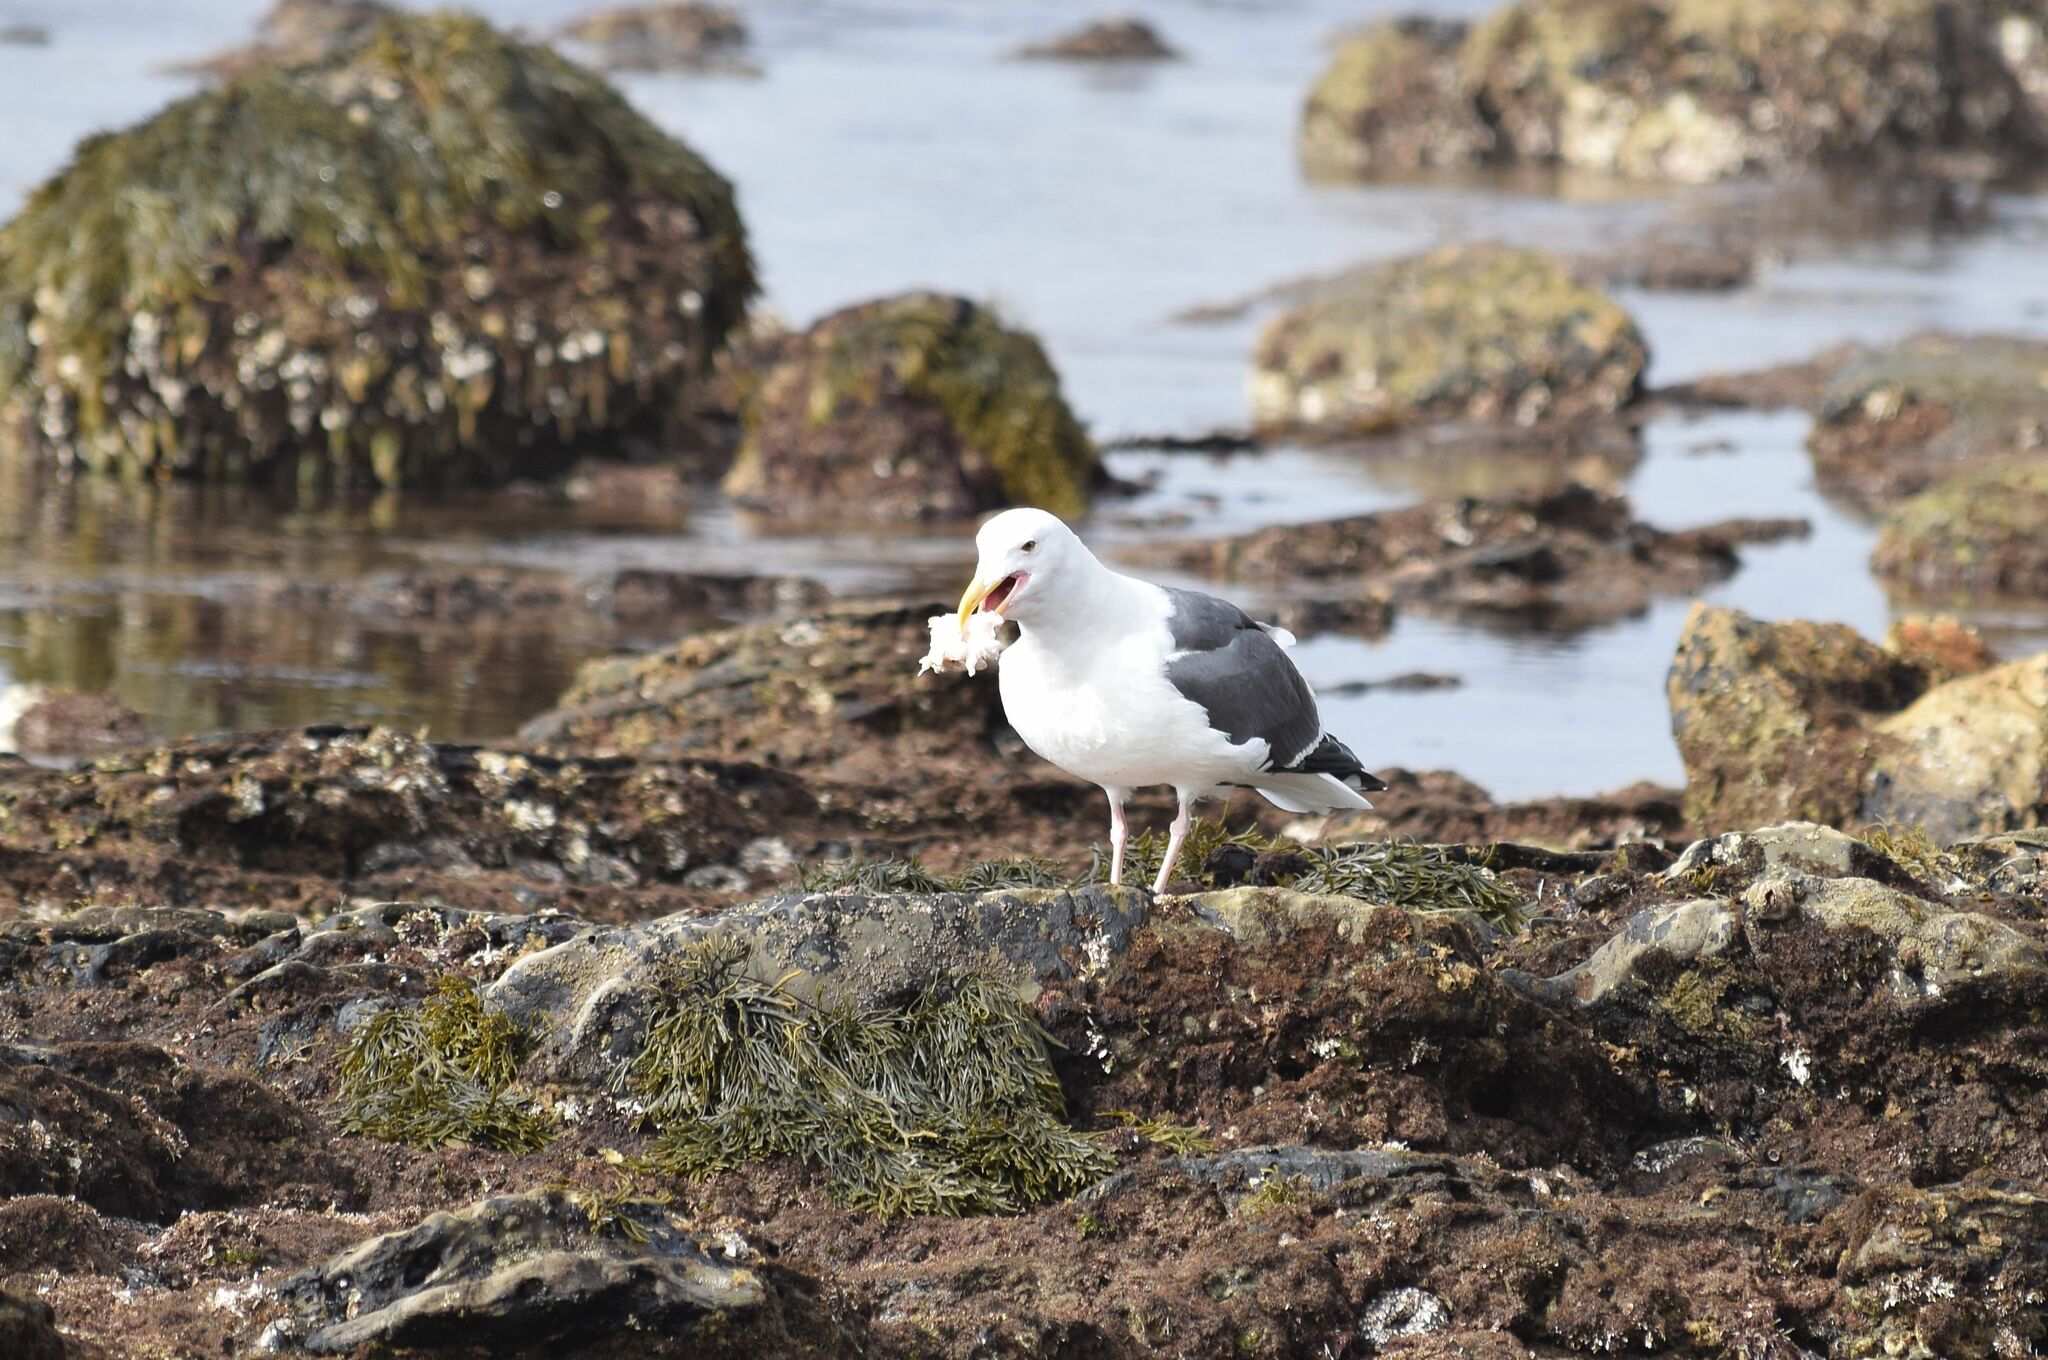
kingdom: Animalia
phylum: Chordata
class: Aves
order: Charadriiformes
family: Laridae
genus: Larus
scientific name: Larus occidentalis
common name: Western gull
